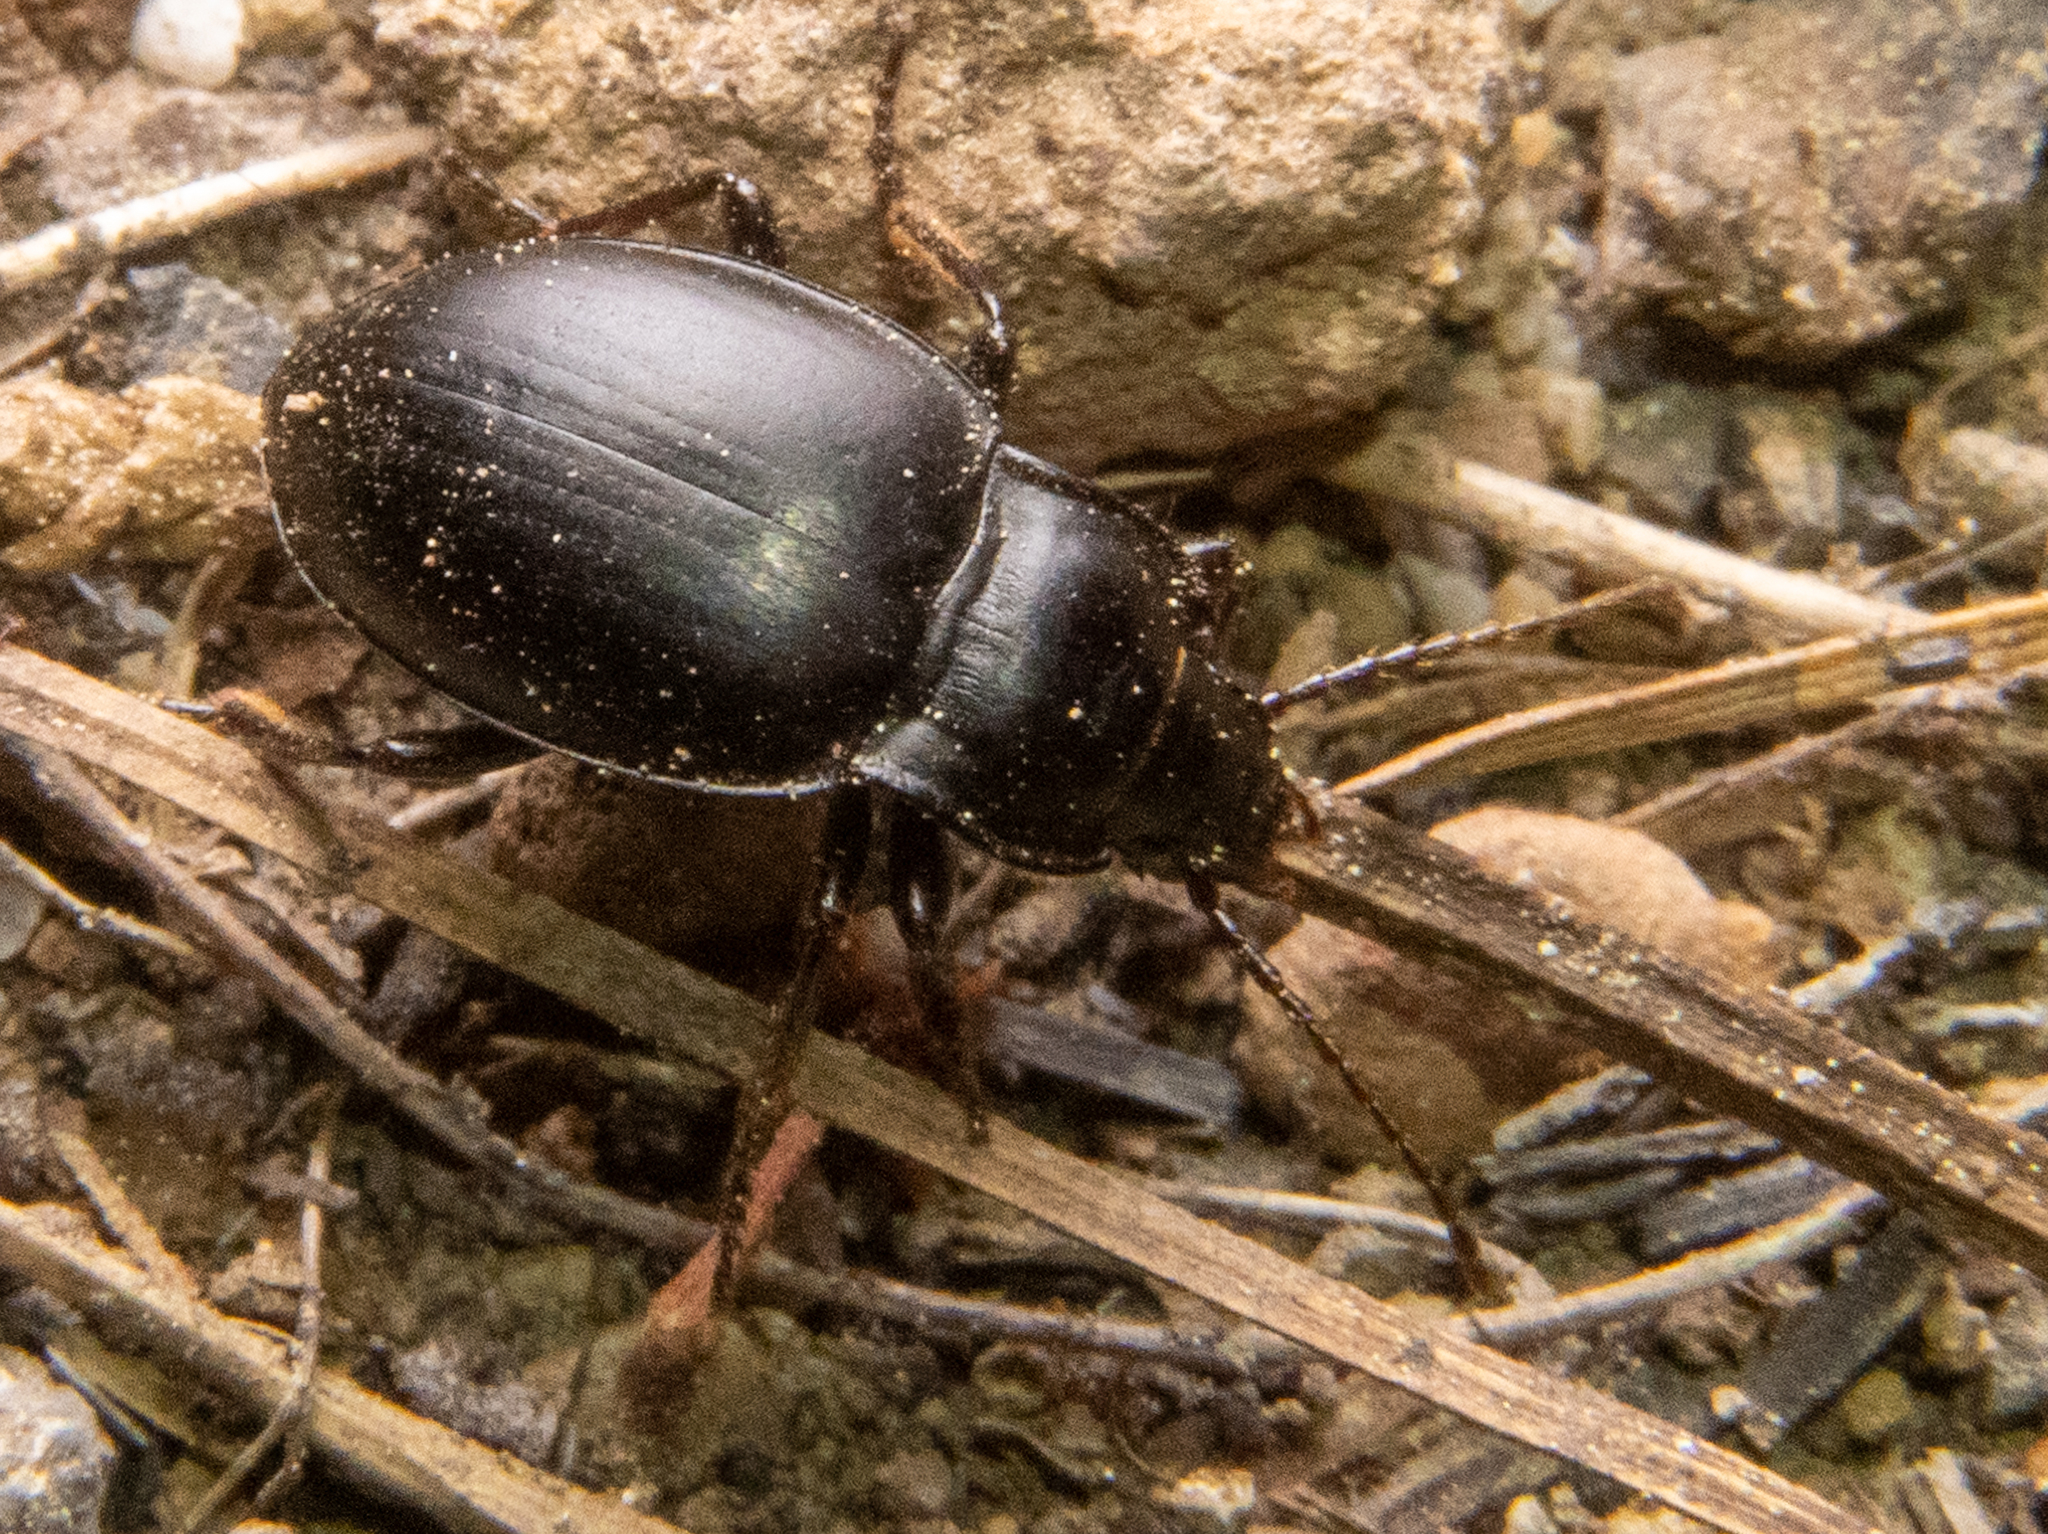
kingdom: Animalia
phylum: Arthropoda
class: Insecta
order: Coleoptera
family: Carabidae
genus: Metrius
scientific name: Metrius contractus
